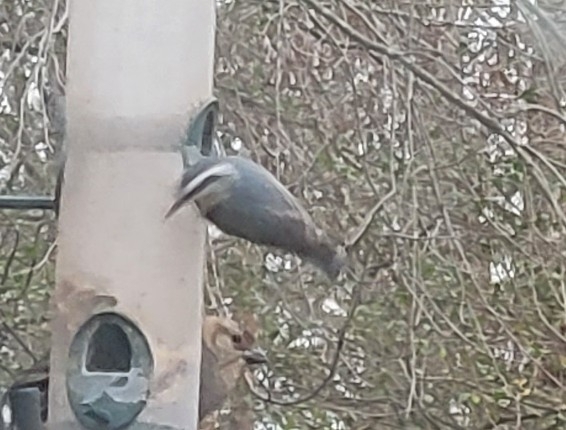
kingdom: Animalia
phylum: Chordata
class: Aves
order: Passeriformes
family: Sittidae
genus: Sitta
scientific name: Sitta canadensis
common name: Red-breasted nuthatch
